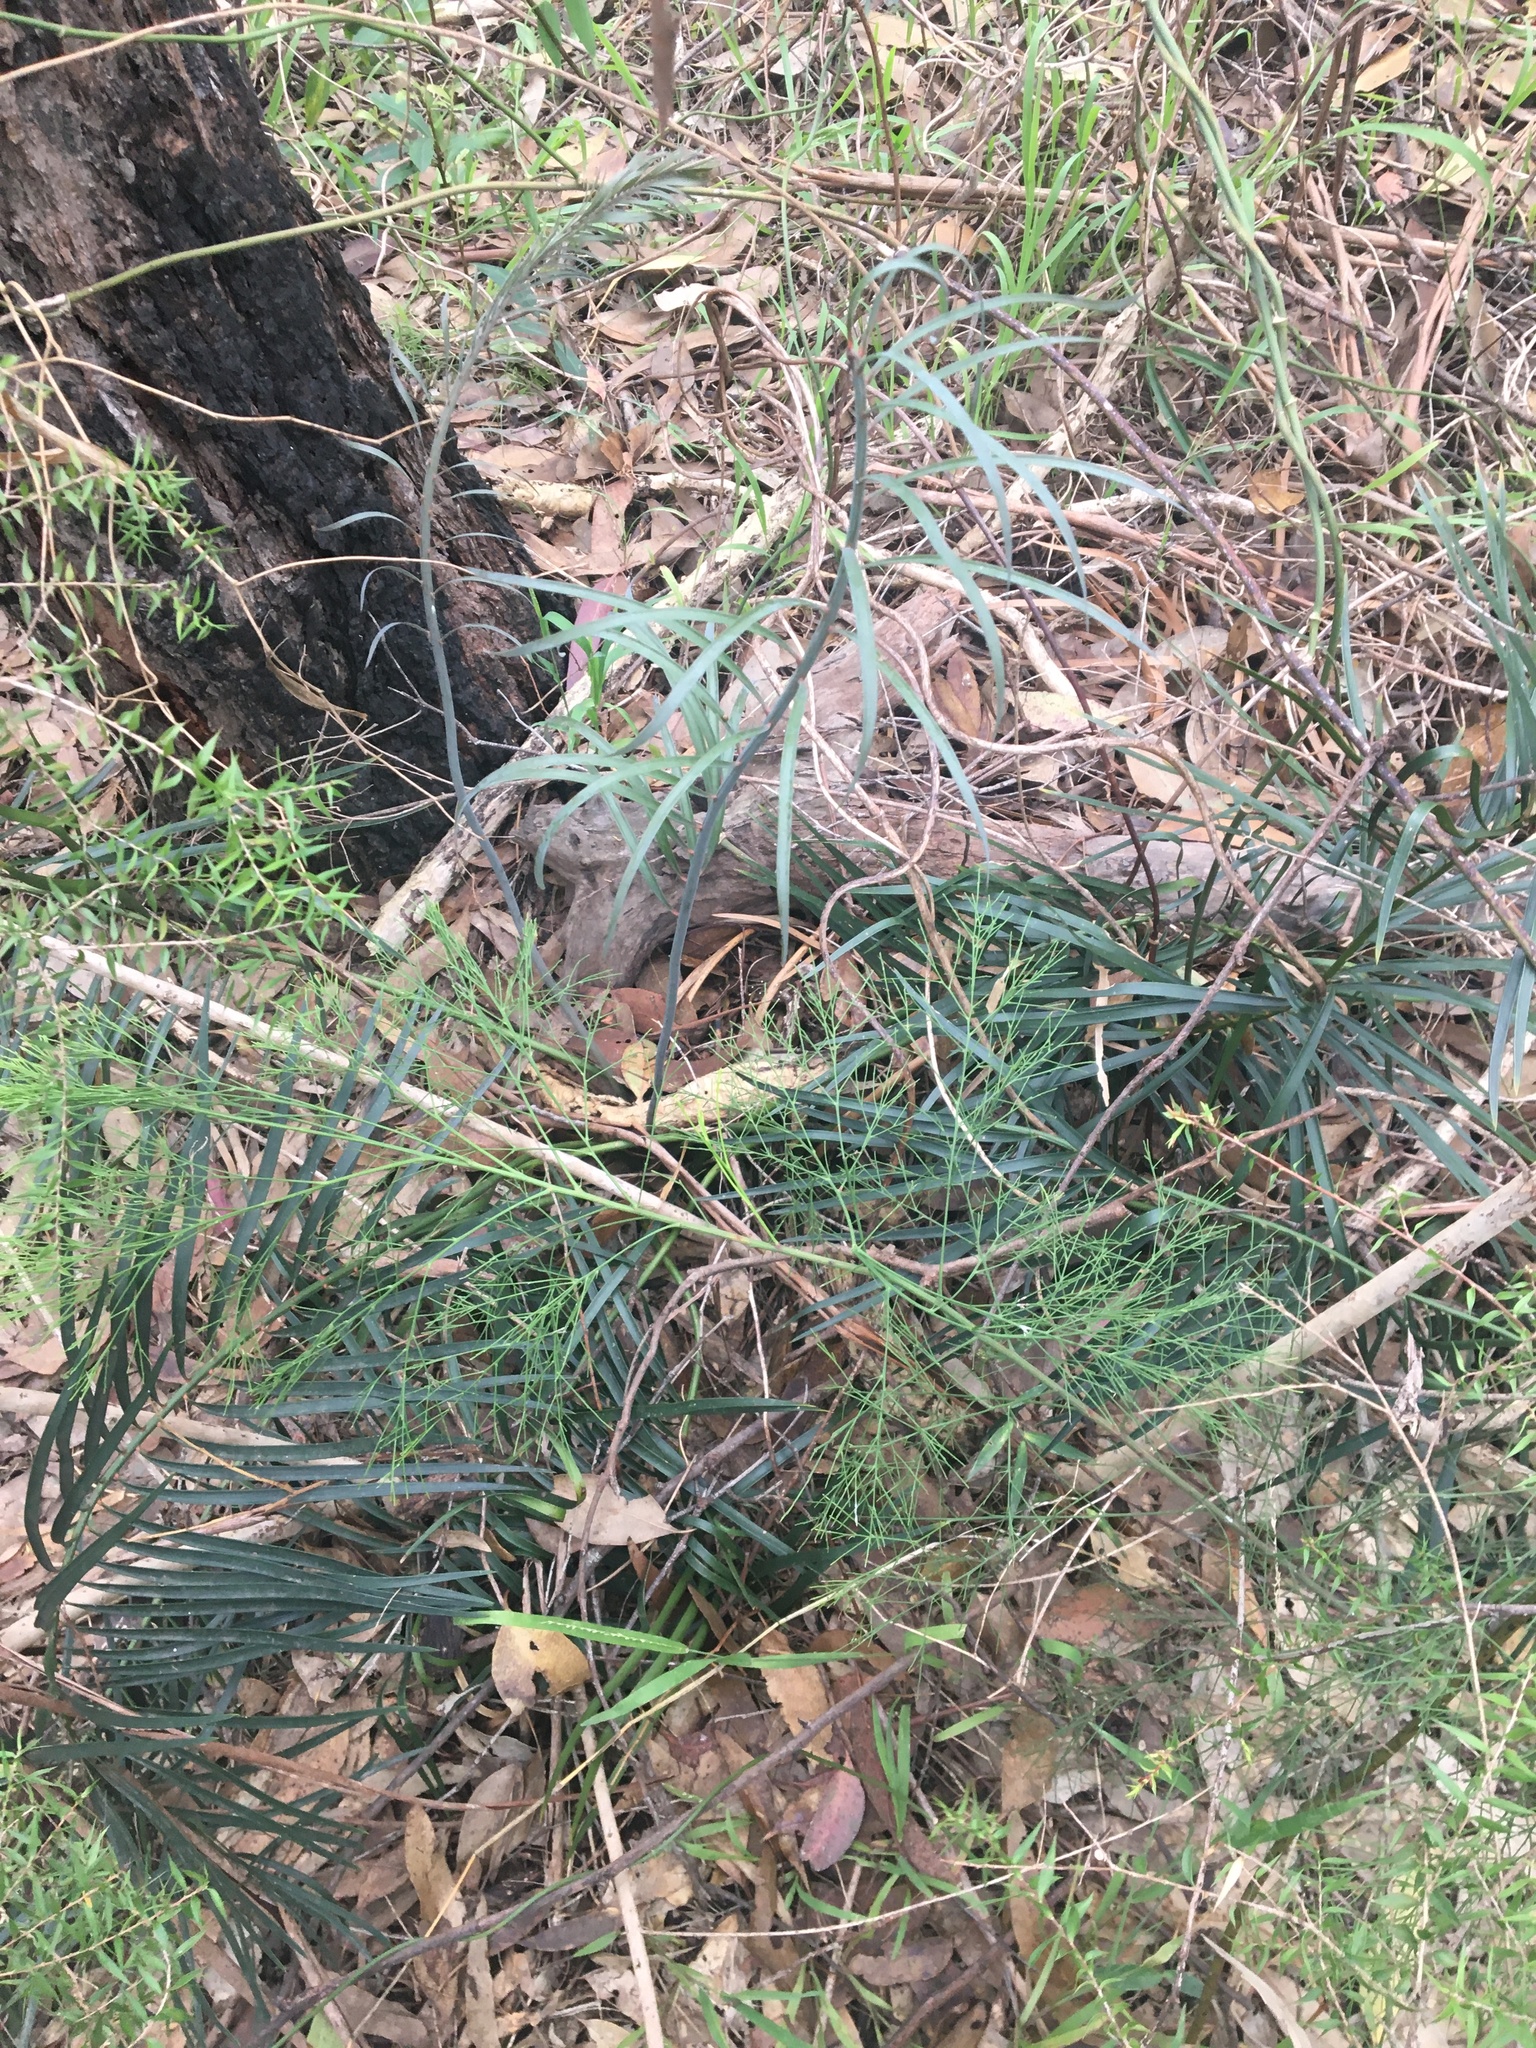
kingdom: Plantae
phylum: Tracheophyta
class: Cycadopsida
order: Cycadales
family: Zamiaceae
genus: Macrozamia
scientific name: Macrozamia spiralis
